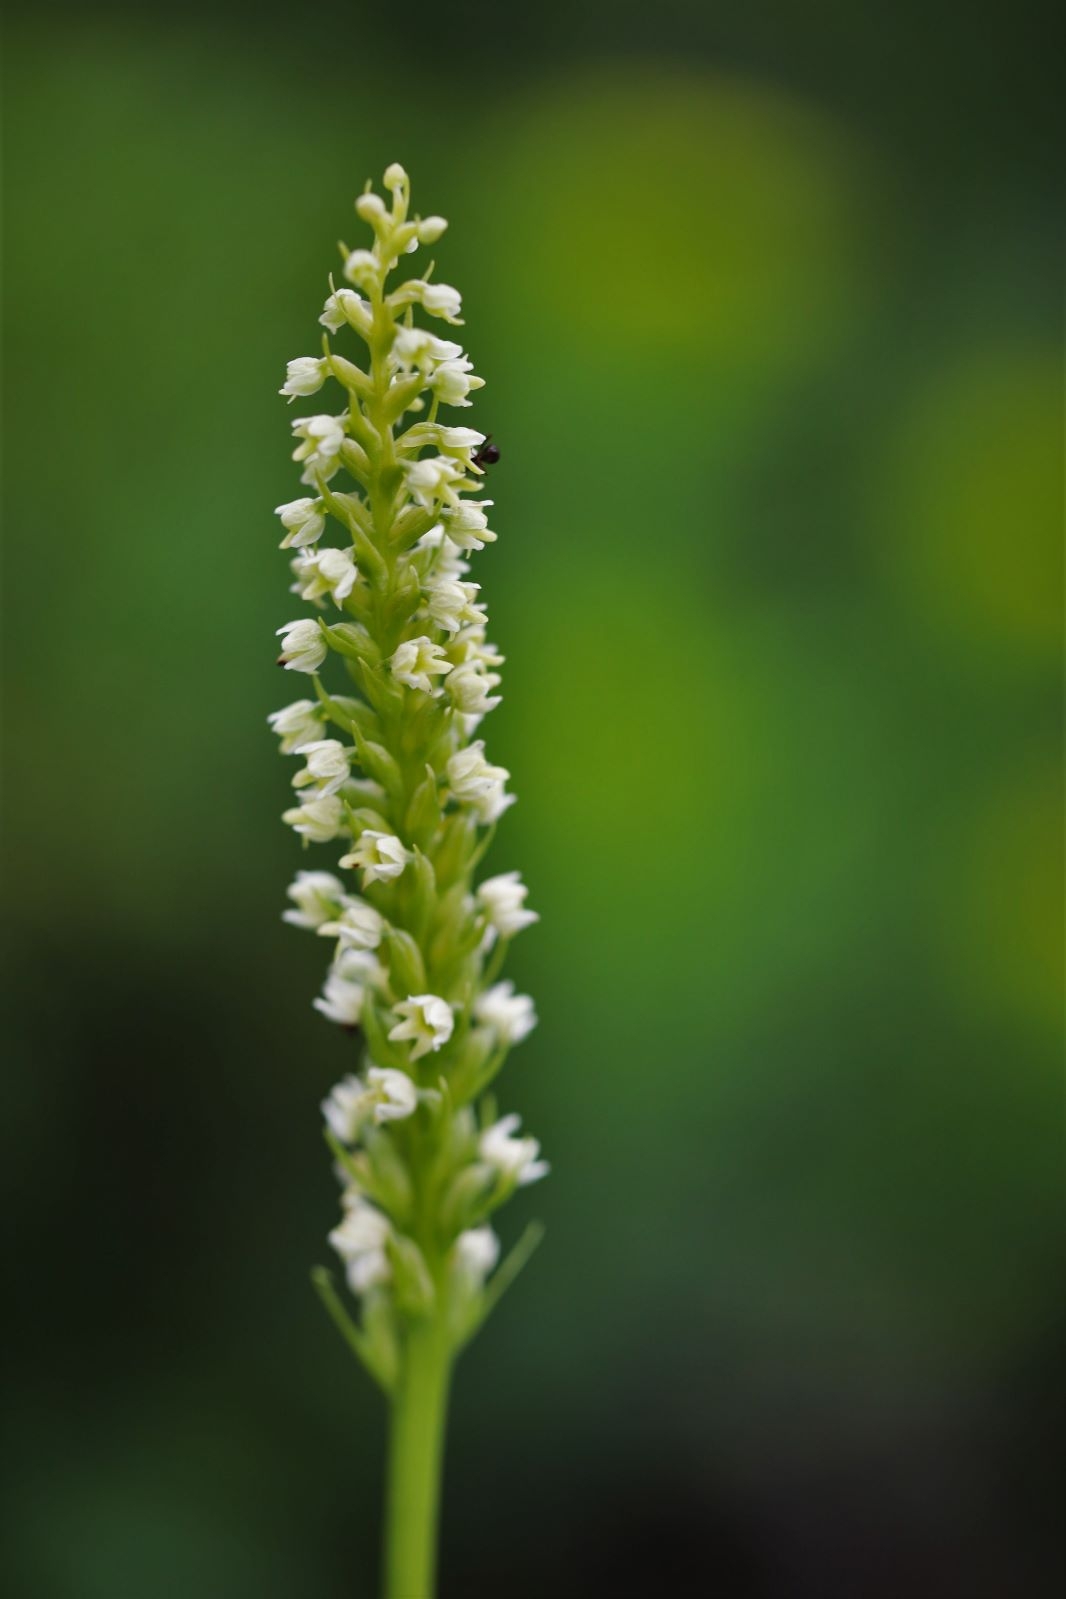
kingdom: Plantae
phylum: Tracheophyta
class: Liliopsida
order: Asparagales
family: Orchidaceae
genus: Pseudorchis
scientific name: Pseudorchis albida
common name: Small-white orchid
